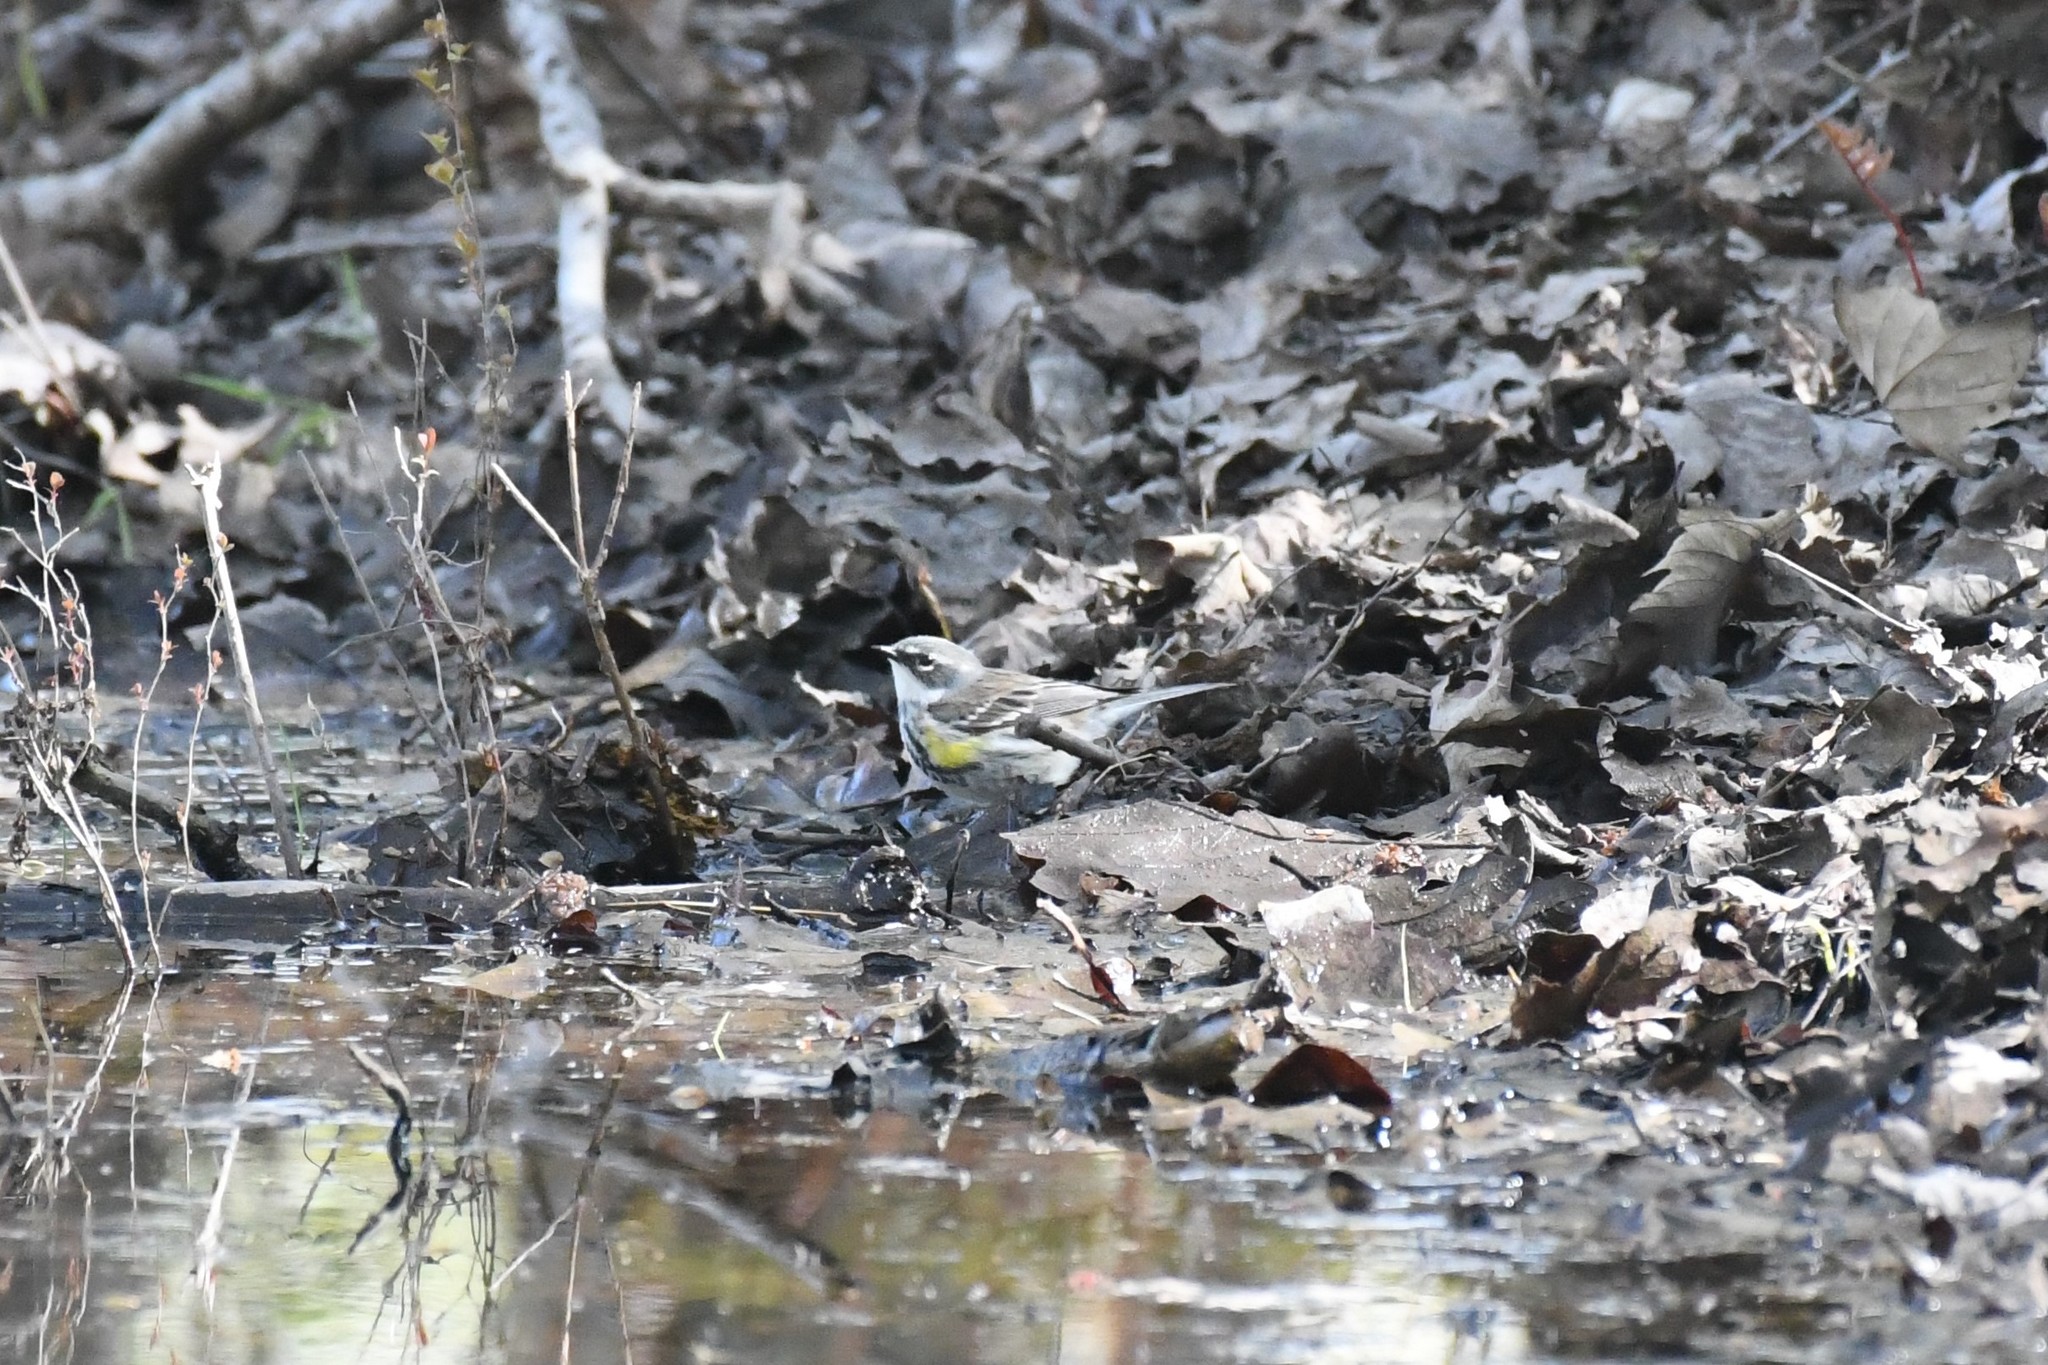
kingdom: Animalia
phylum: Chordata
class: Aves
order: Passeriformes
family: Parulidae
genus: Setophaga
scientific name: Setophaga coronata
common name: Myrtle warbler
